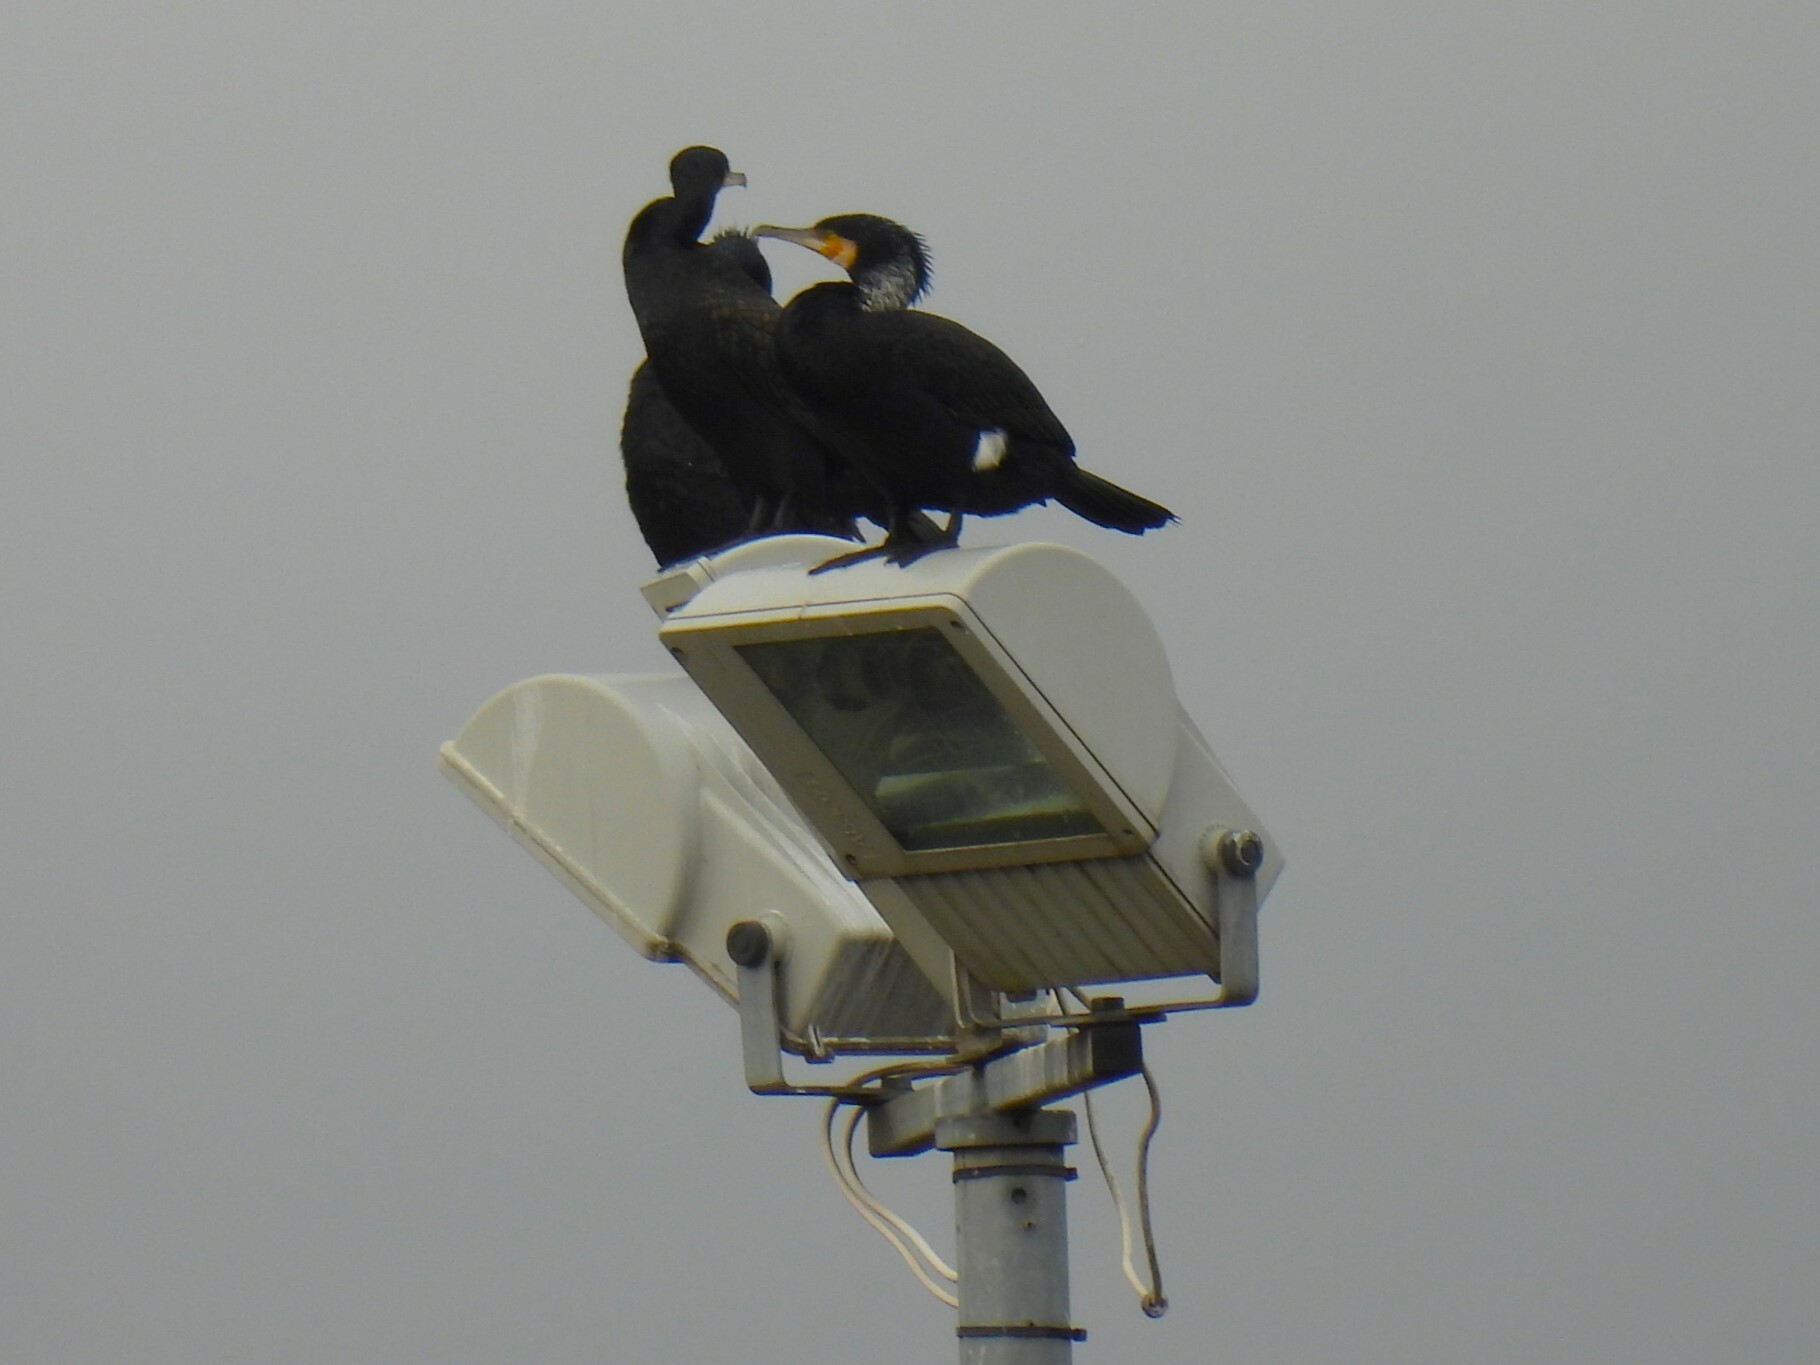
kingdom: Animalia
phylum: Chordata
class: Aves
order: Suliformes
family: Phalacrocoracidae
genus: Phalacrocorax
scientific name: Phalacrocorax carbo
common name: Great cormorant
